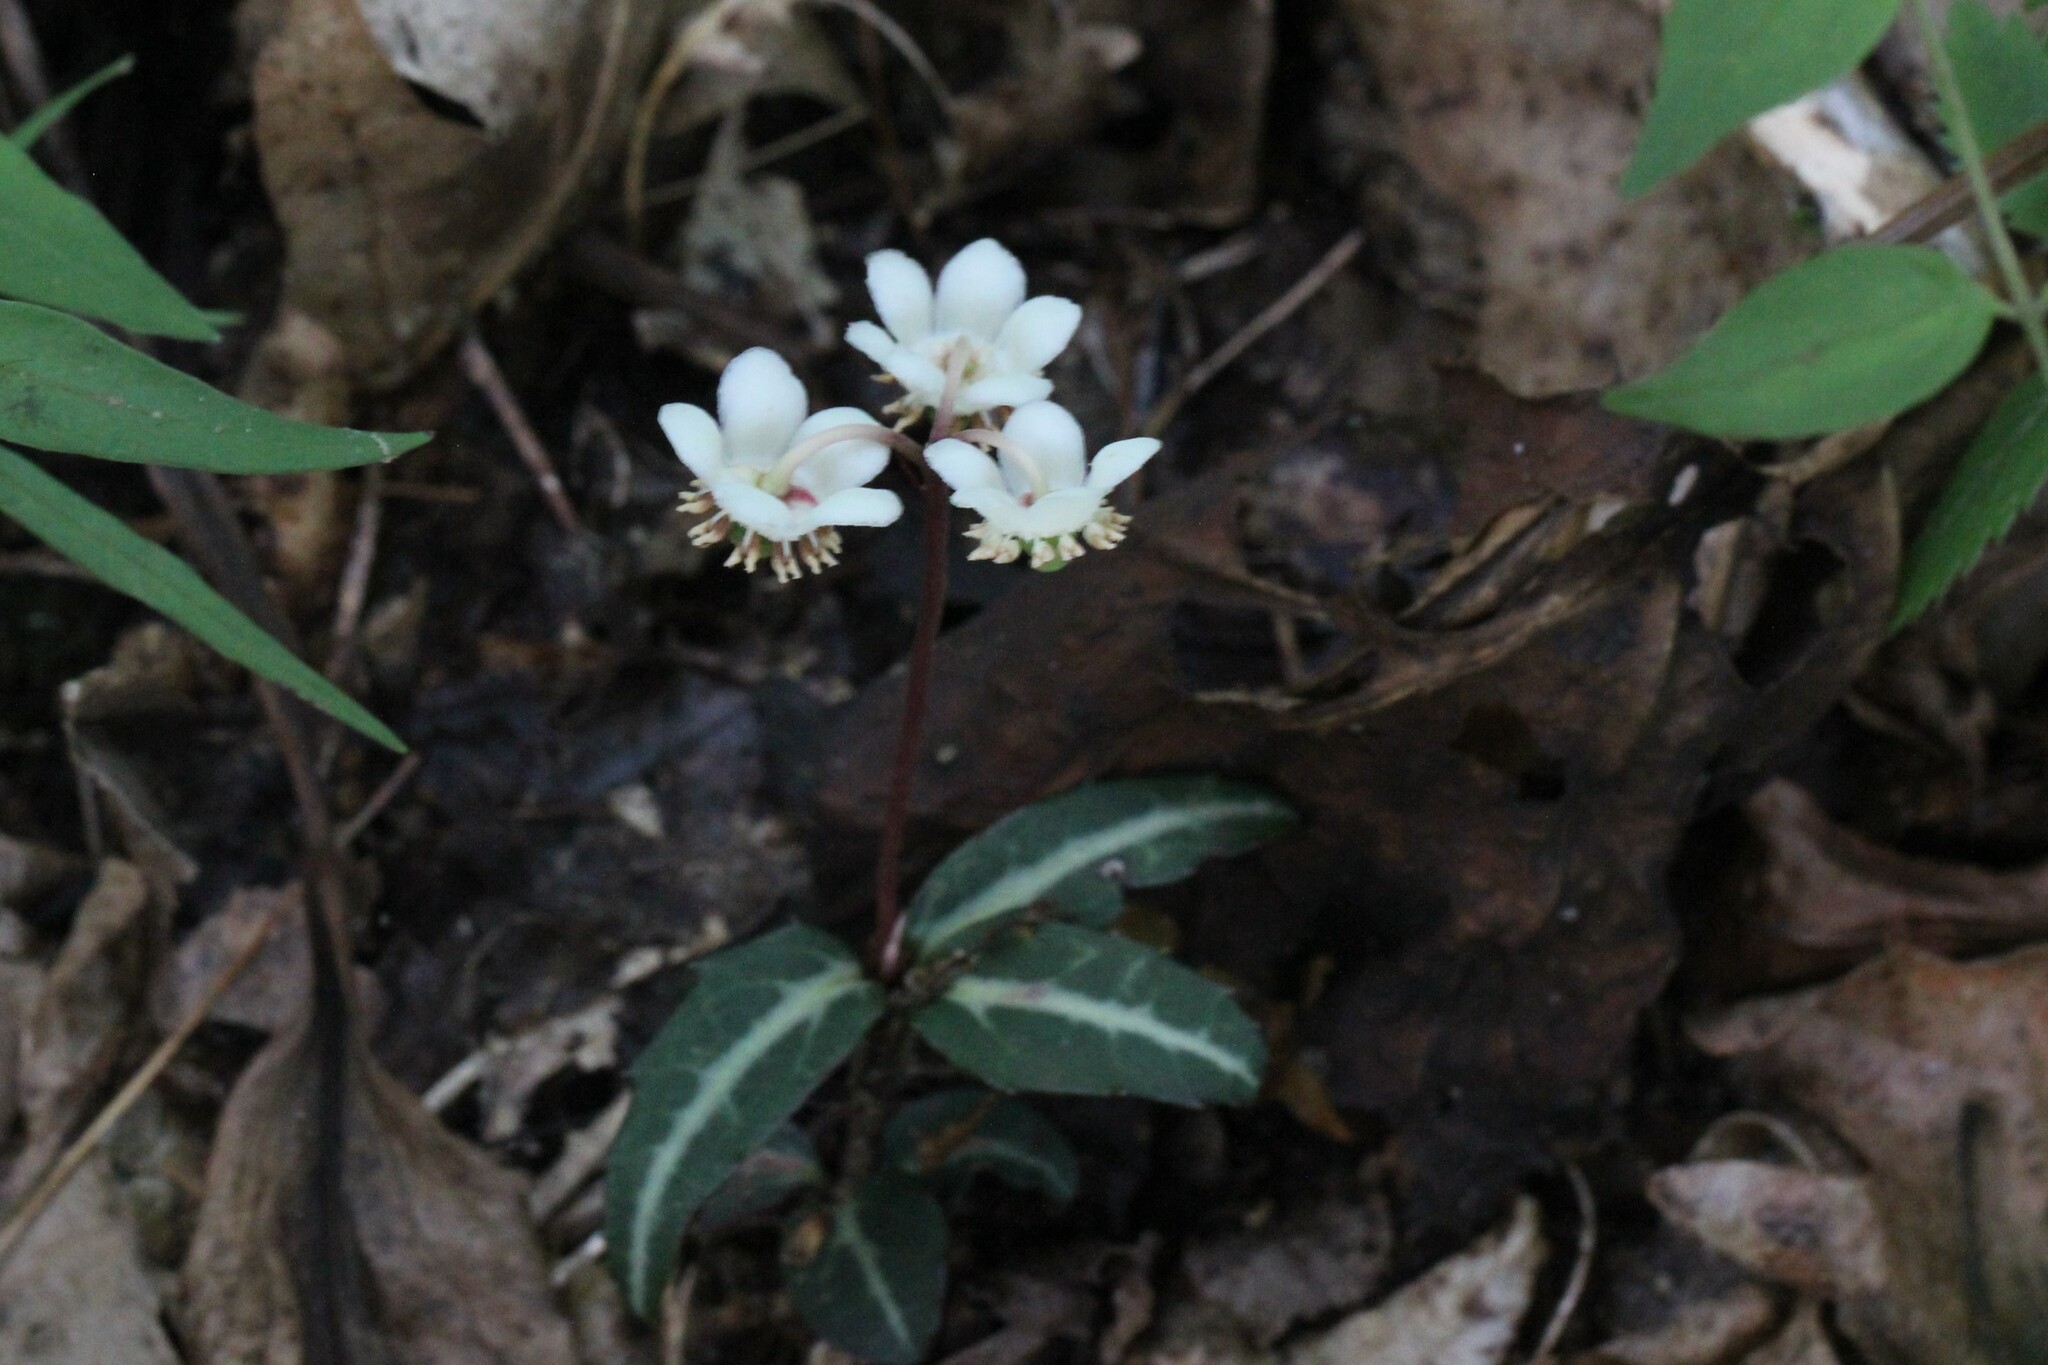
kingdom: Plantae
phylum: Tracheophyta
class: Magnoliopsida
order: Ericales
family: Ericaceae
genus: Chimaphila
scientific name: Chimaphila maculata
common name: Spotted pipsissewa
